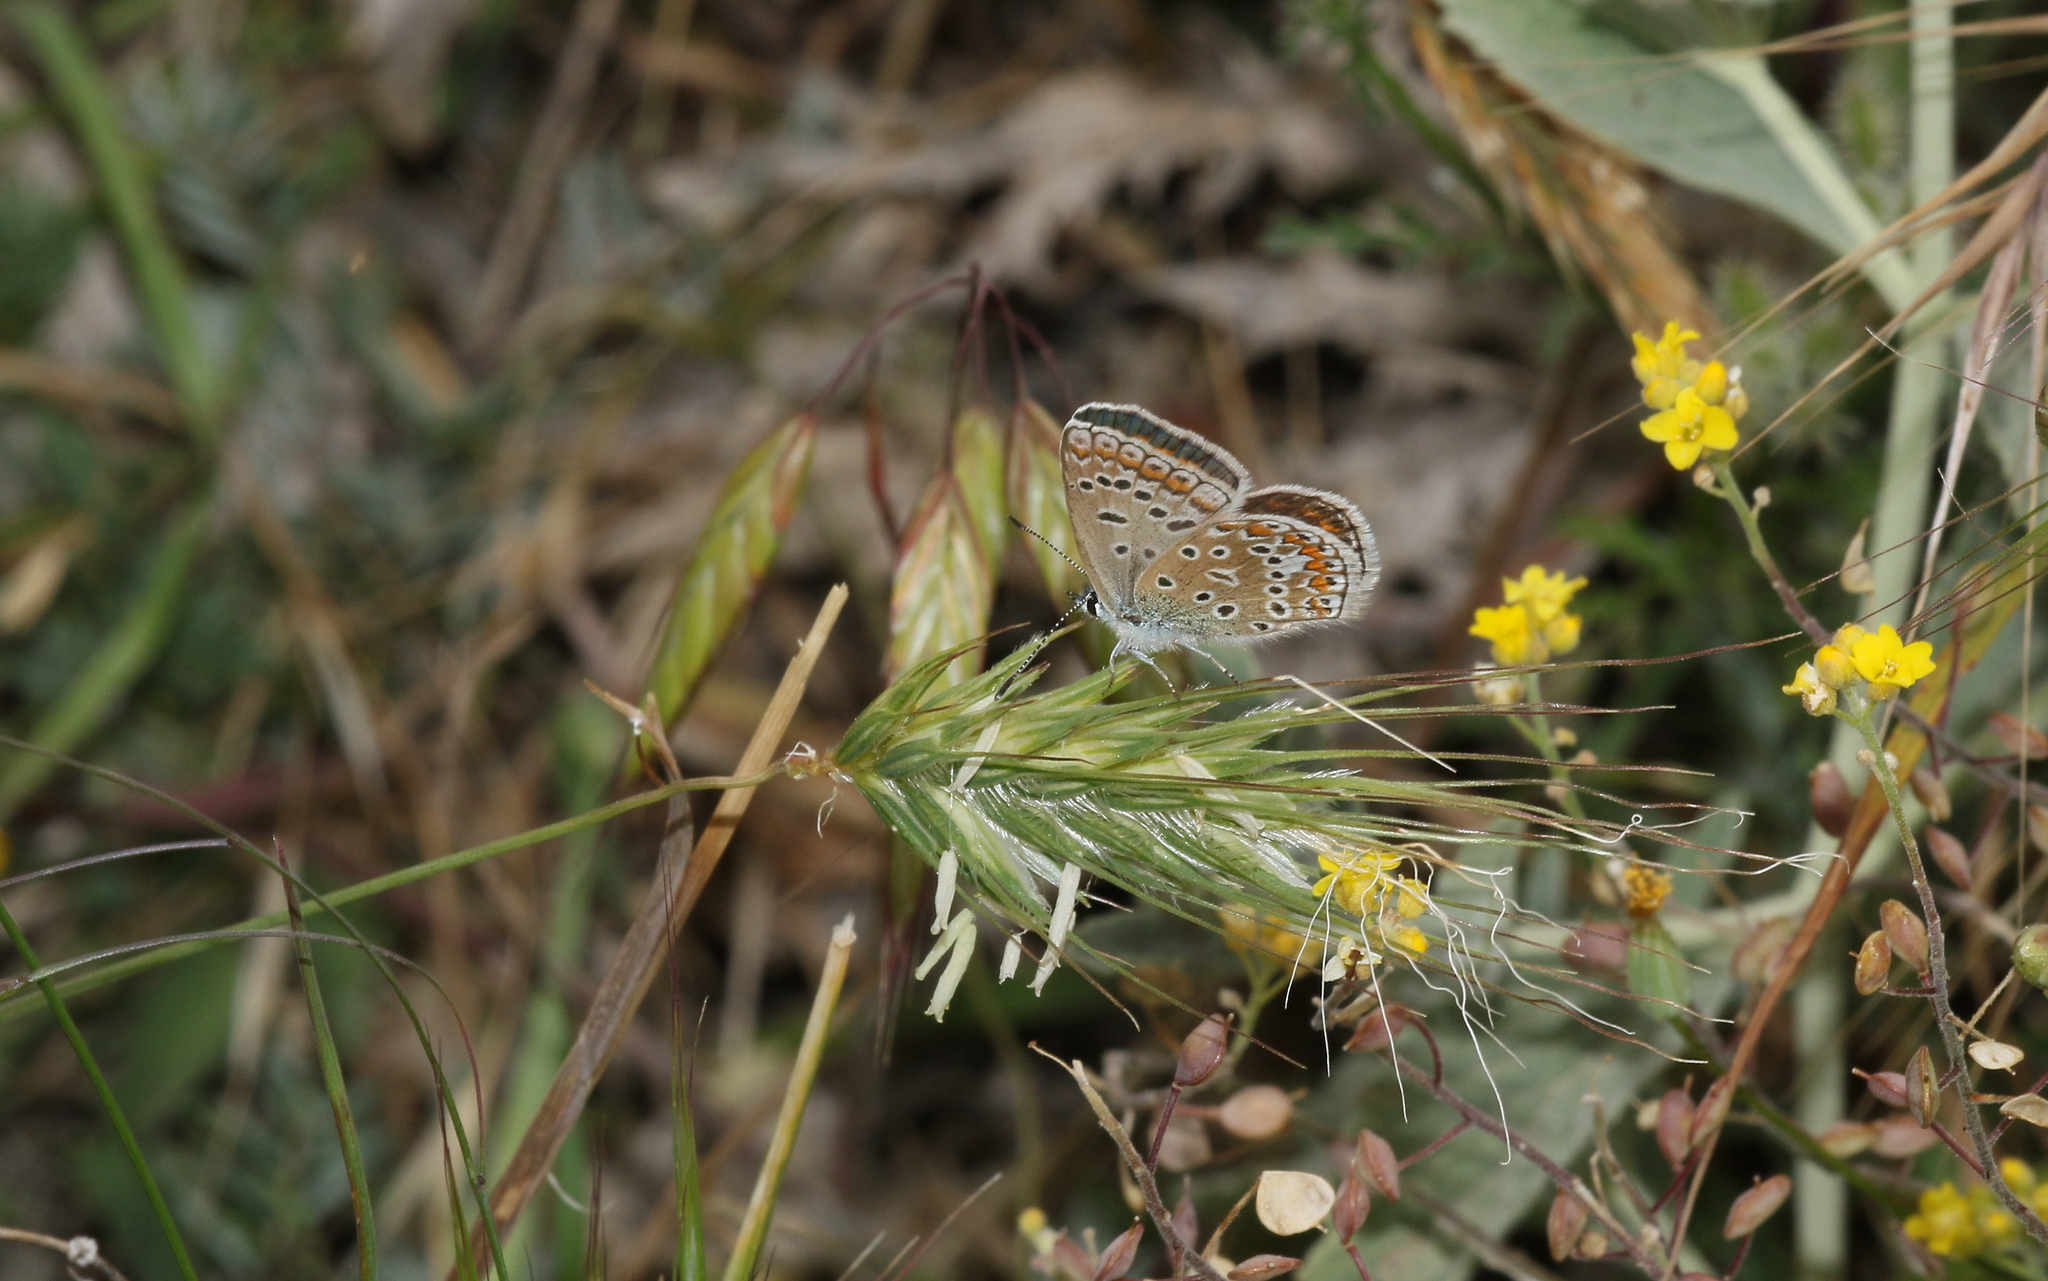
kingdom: Animalia
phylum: Arthropoda
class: Insecta
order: Lepidoptera
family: Lycaenidae
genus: Polyommatus
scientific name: Polyommatus icarus
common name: Common blue
